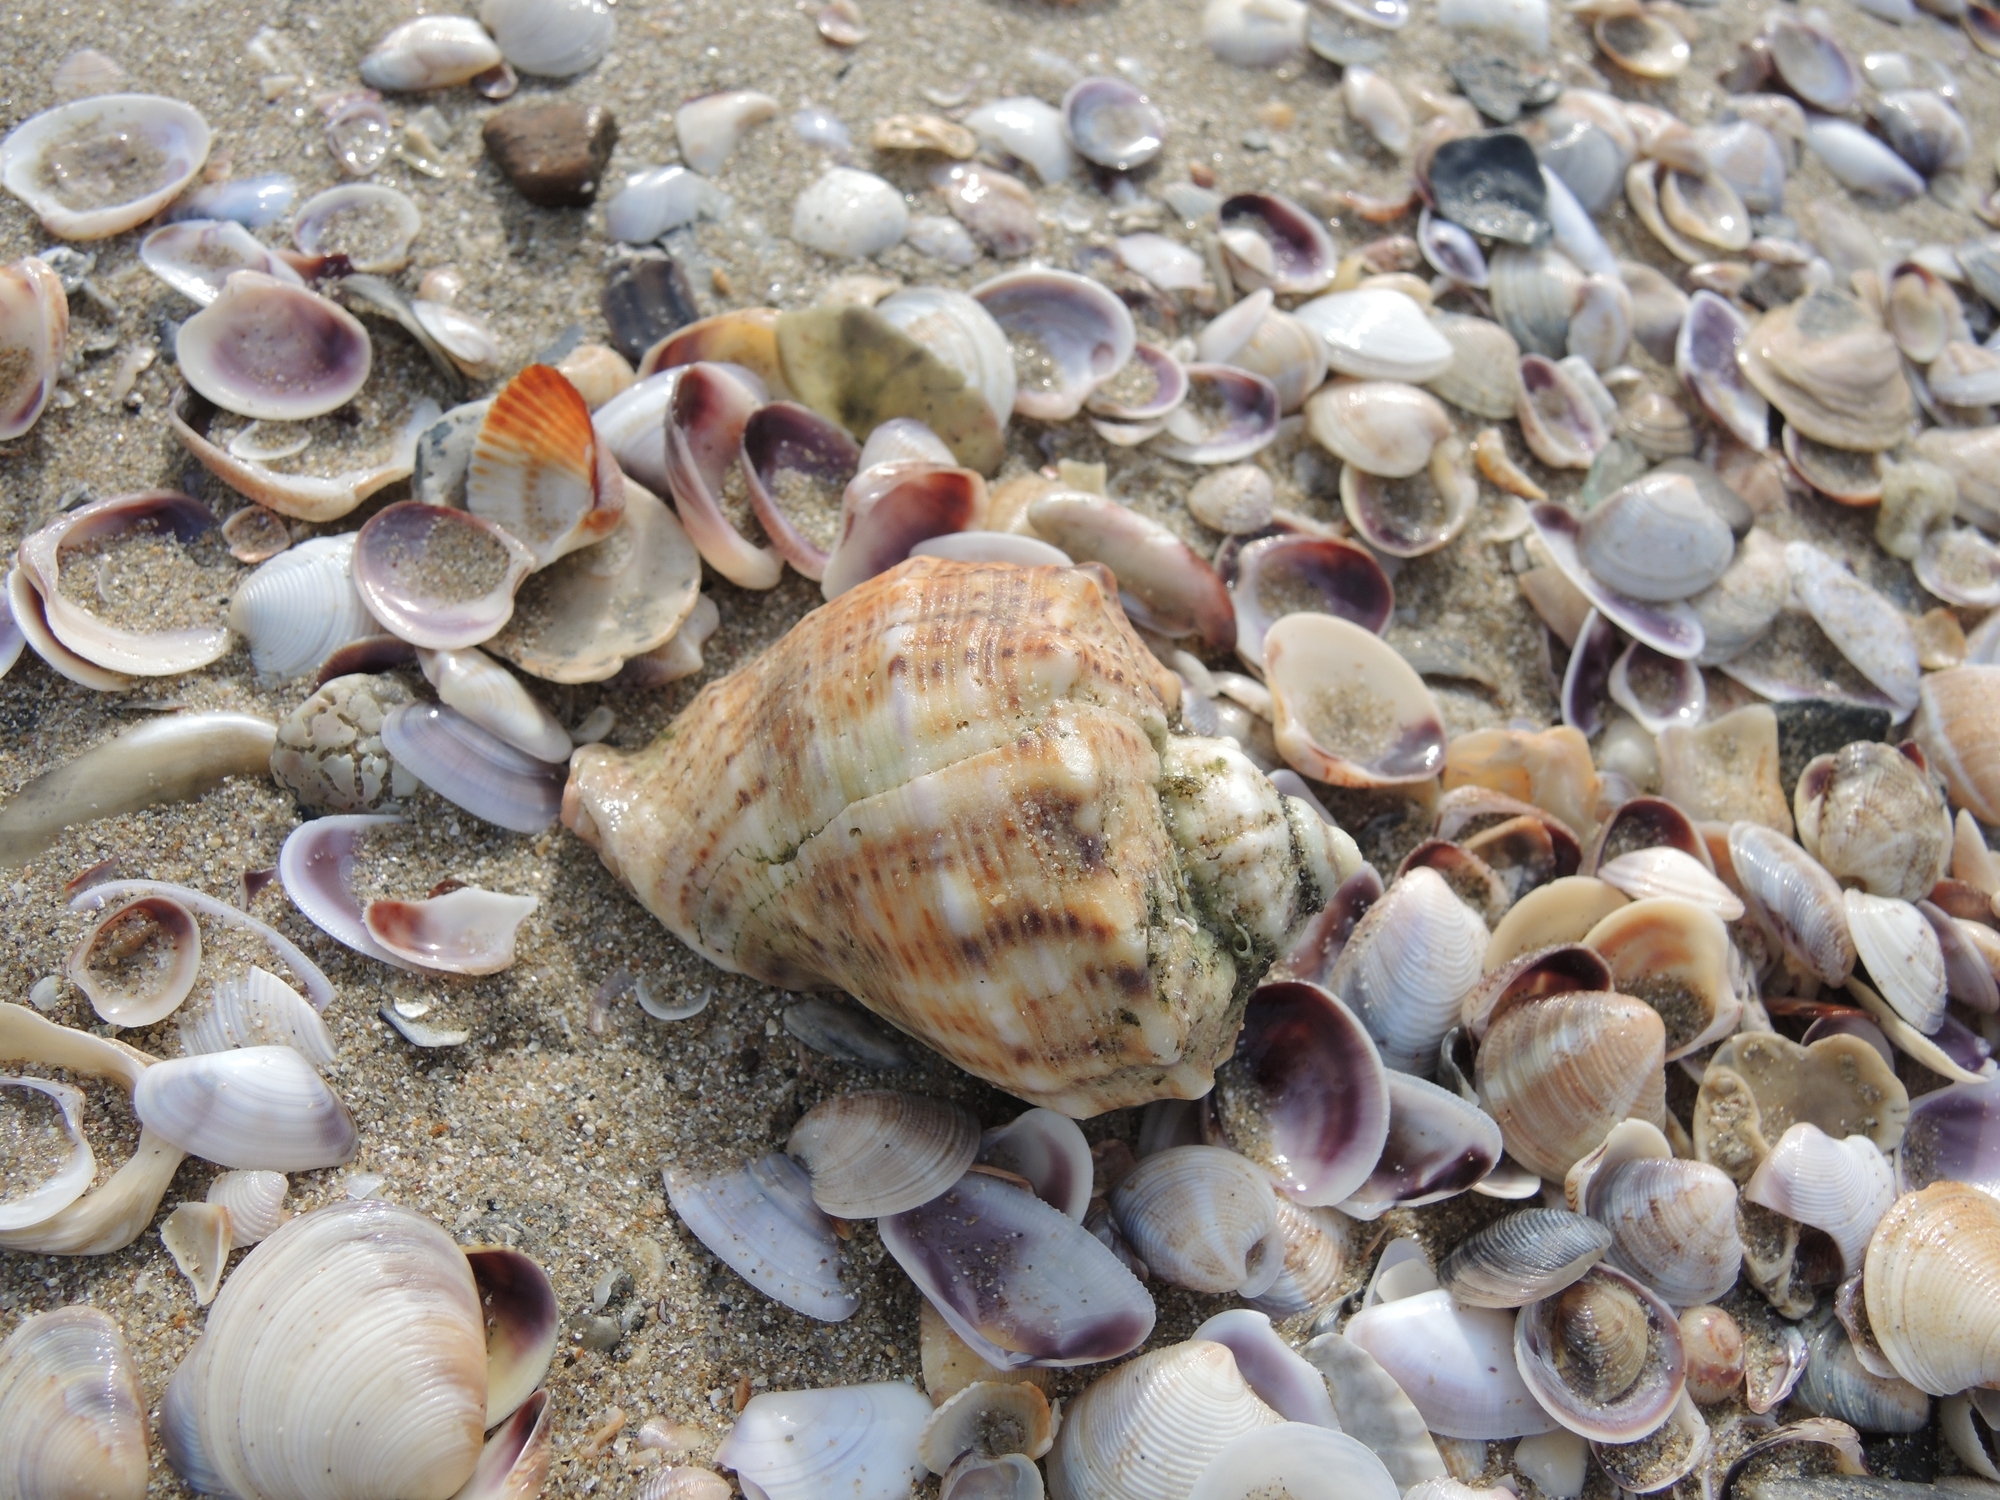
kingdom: Animalia
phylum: Mollusca
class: Gastropoda
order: Neogastropoda
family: Muricidae
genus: Rapana
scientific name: Rapana venosa
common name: Veined rapa whelk
